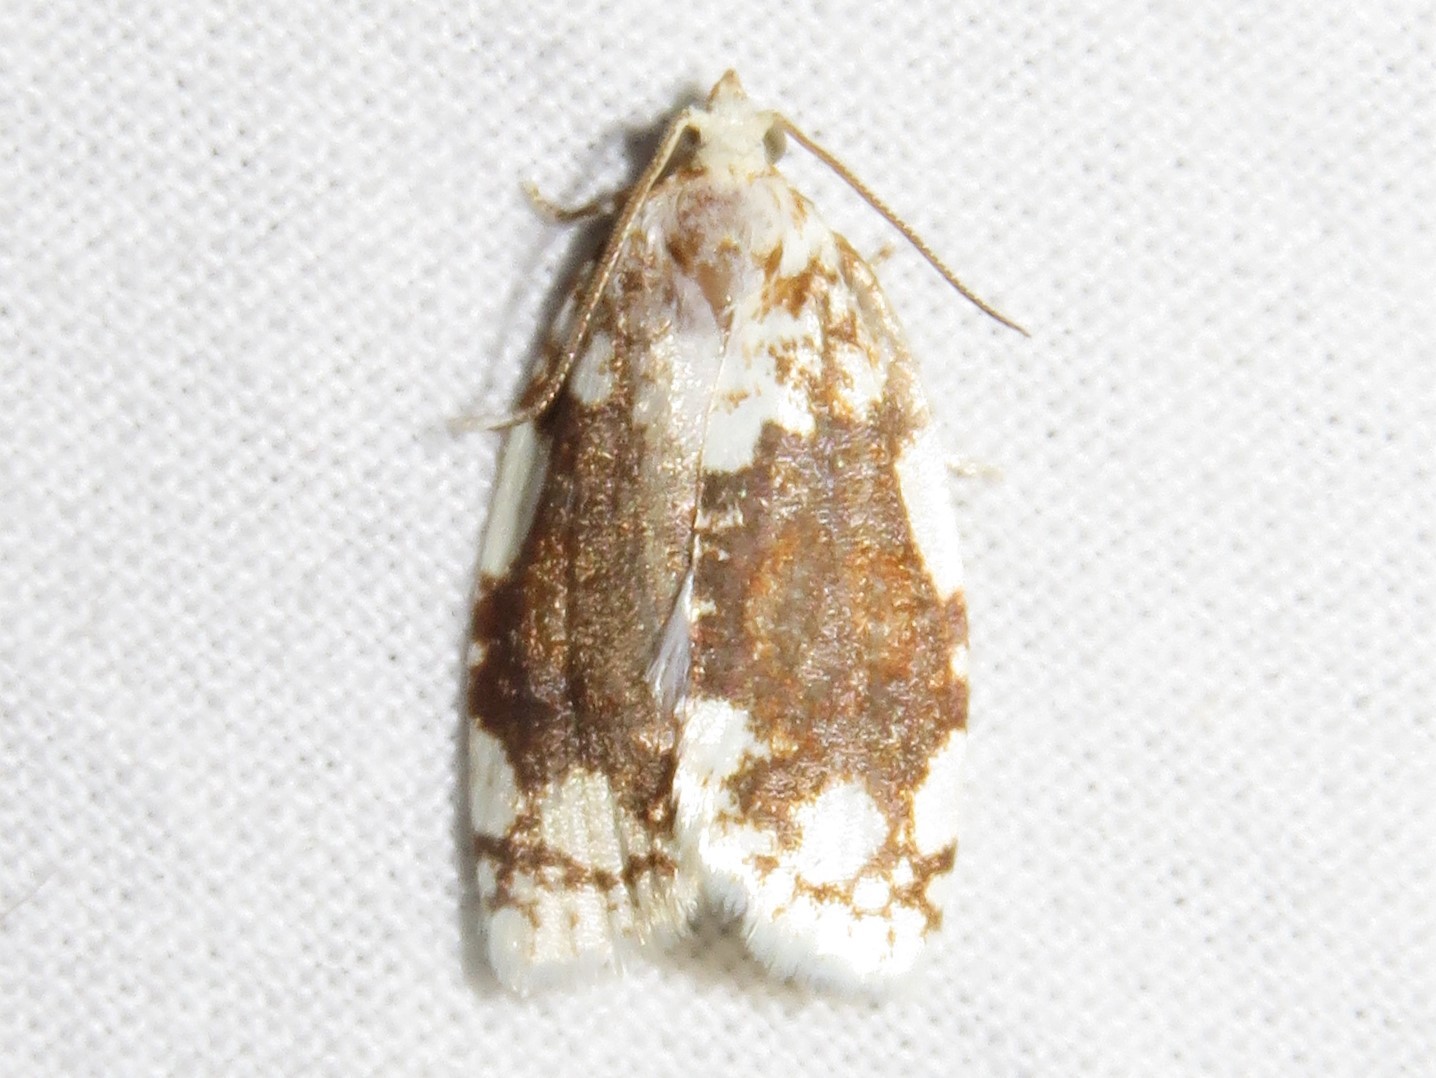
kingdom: Animalia
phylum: Arthropoda
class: Insecta
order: Lepidoptera
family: Tortricidae
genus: Argyrotaenia
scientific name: Argyrotaenia alisellana
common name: White-spotted leafroller moth
